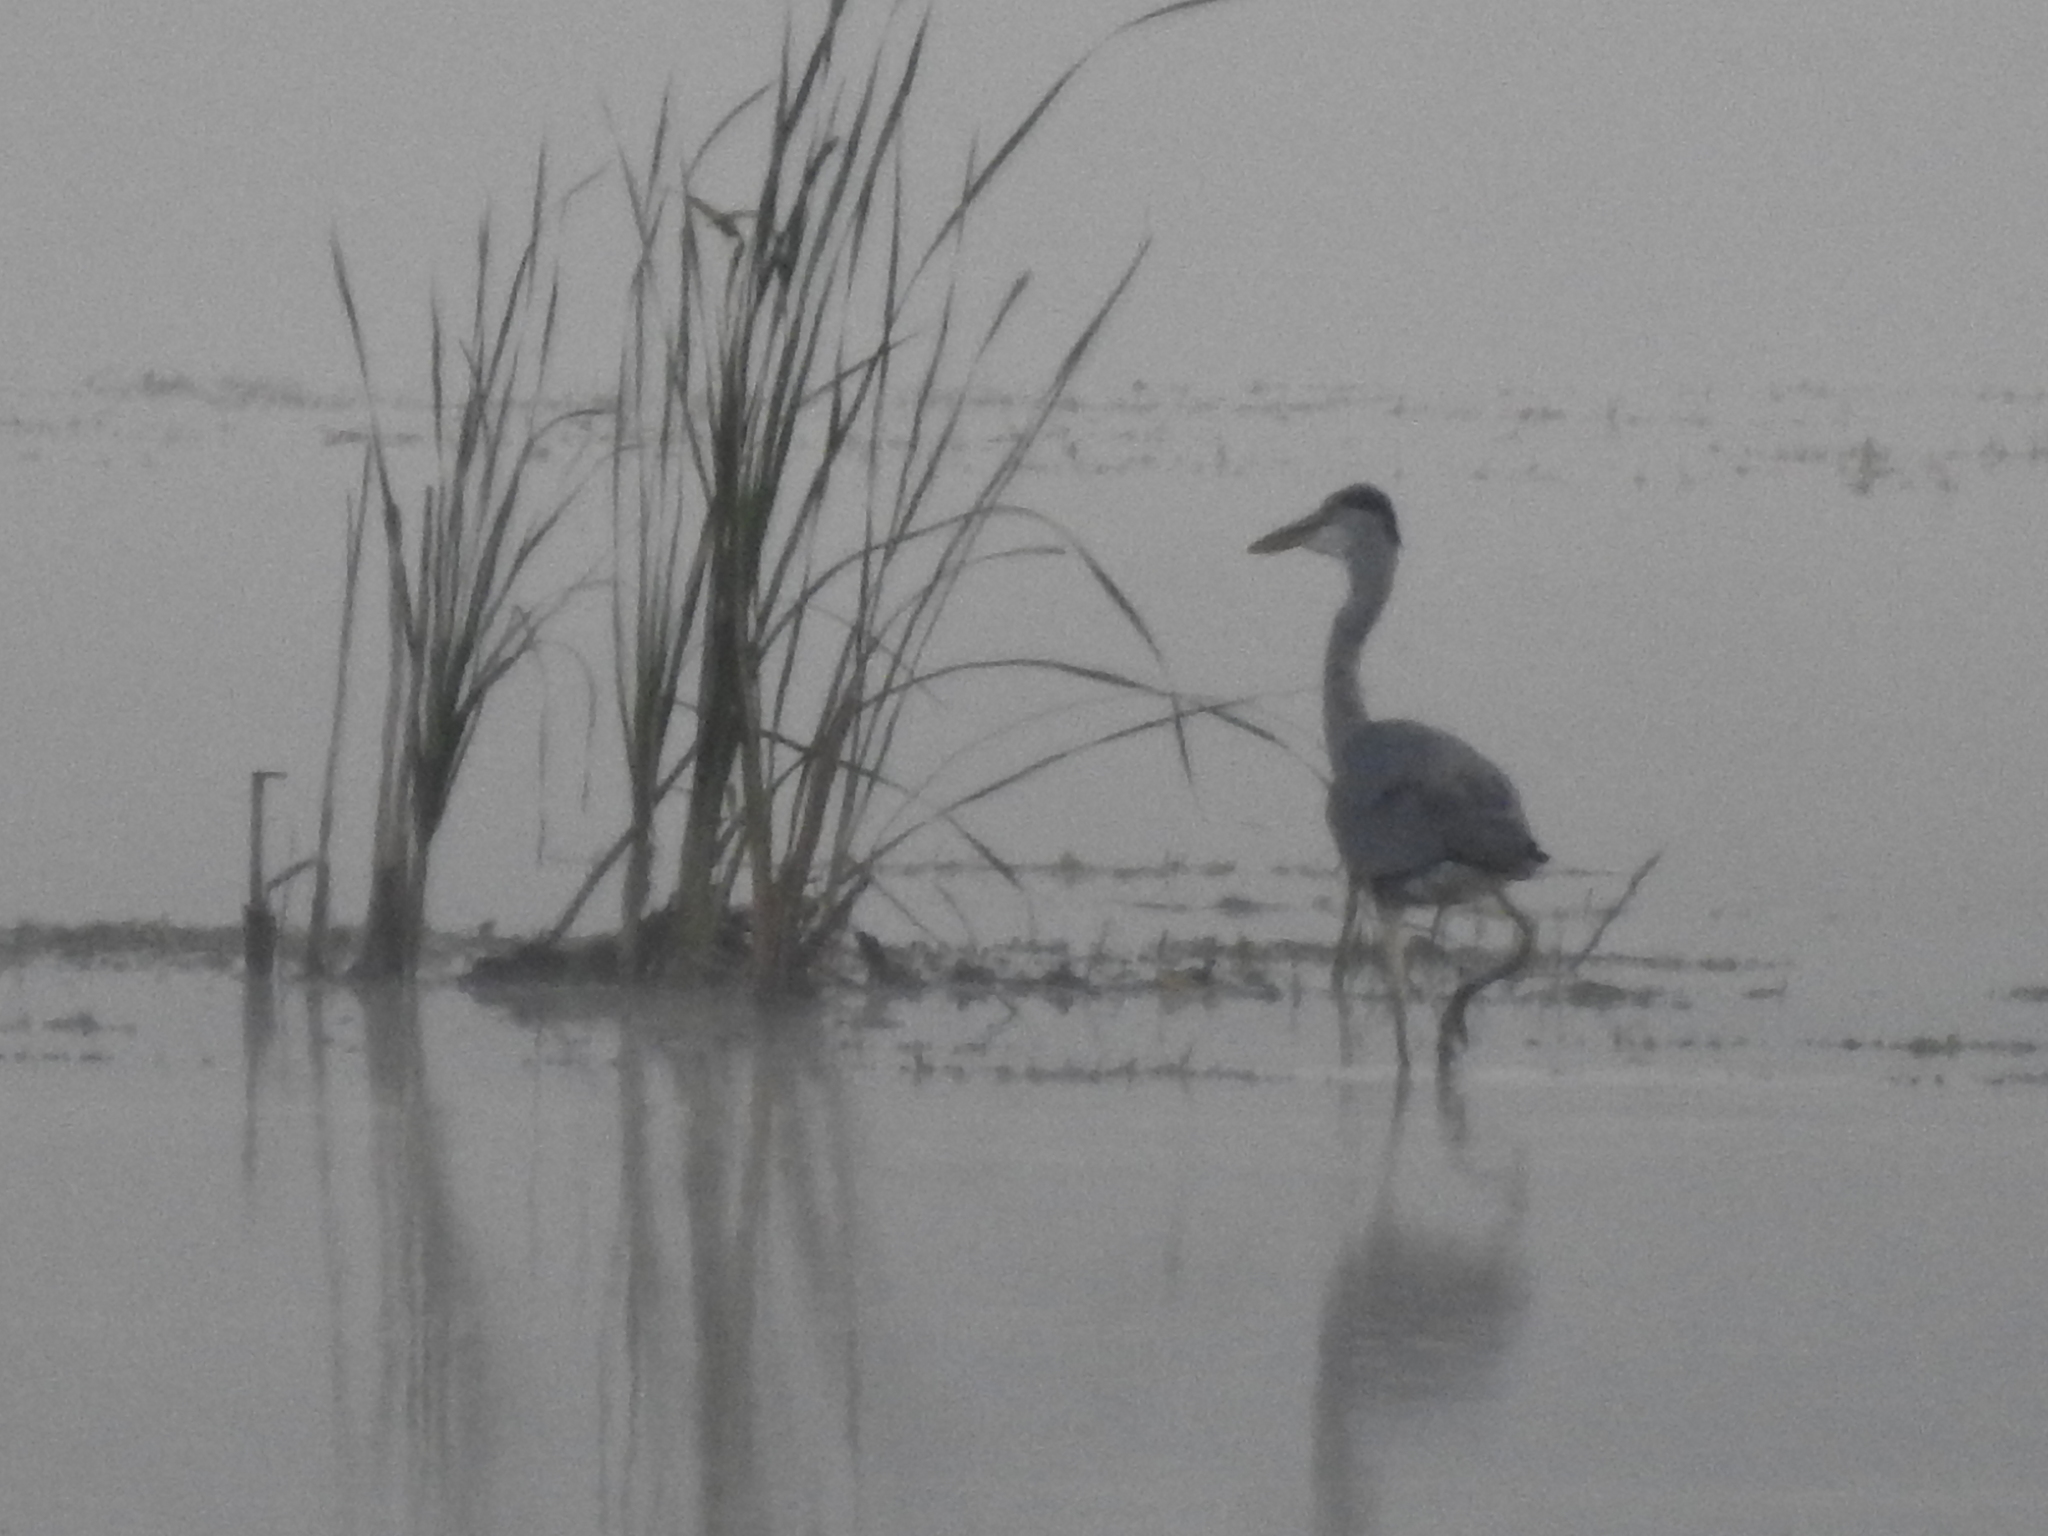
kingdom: Animalia
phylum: Chordata
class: Aves
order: Pelecaniformes
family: Ardeidae
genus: Ardea
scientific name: Ardea cinerea
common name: Grey heron
